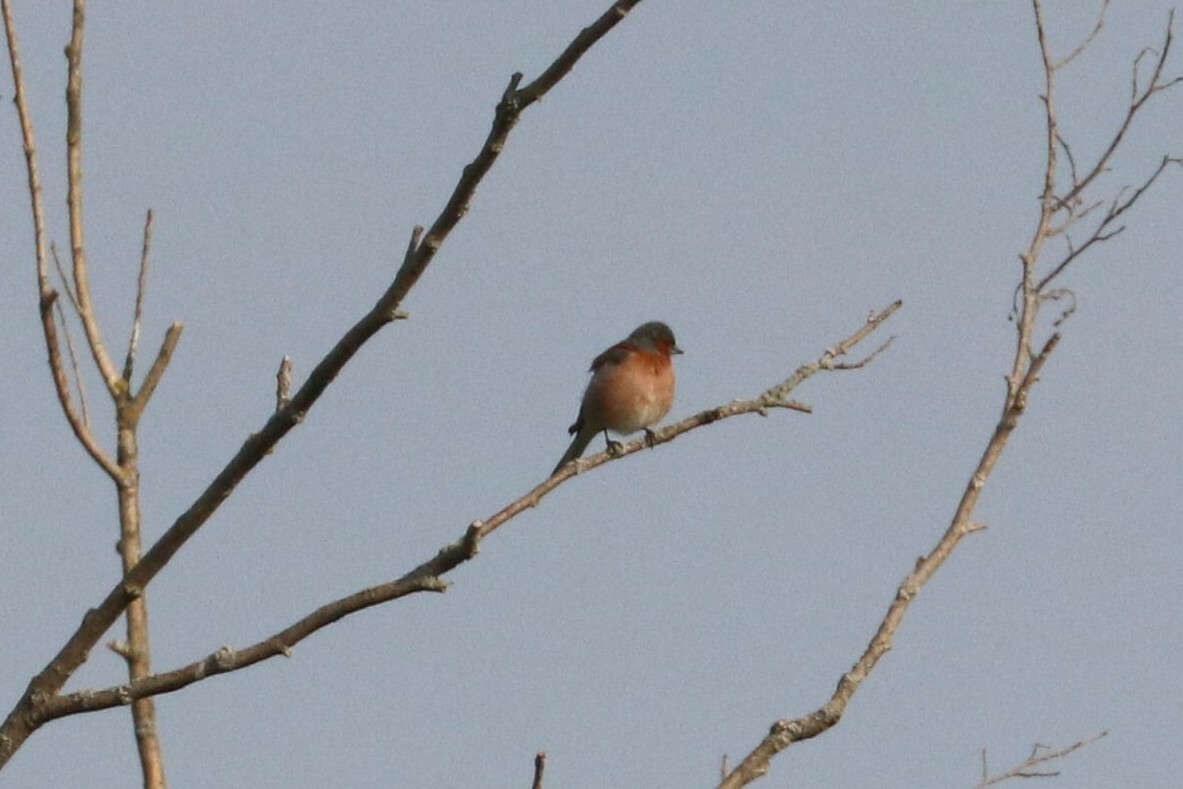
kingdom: Animalia
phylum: Chordata
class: Aves
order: Passeriformes
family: Fringillidae
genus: Fringilla
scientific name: Fringilla coelebs
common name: Common chaffinch
